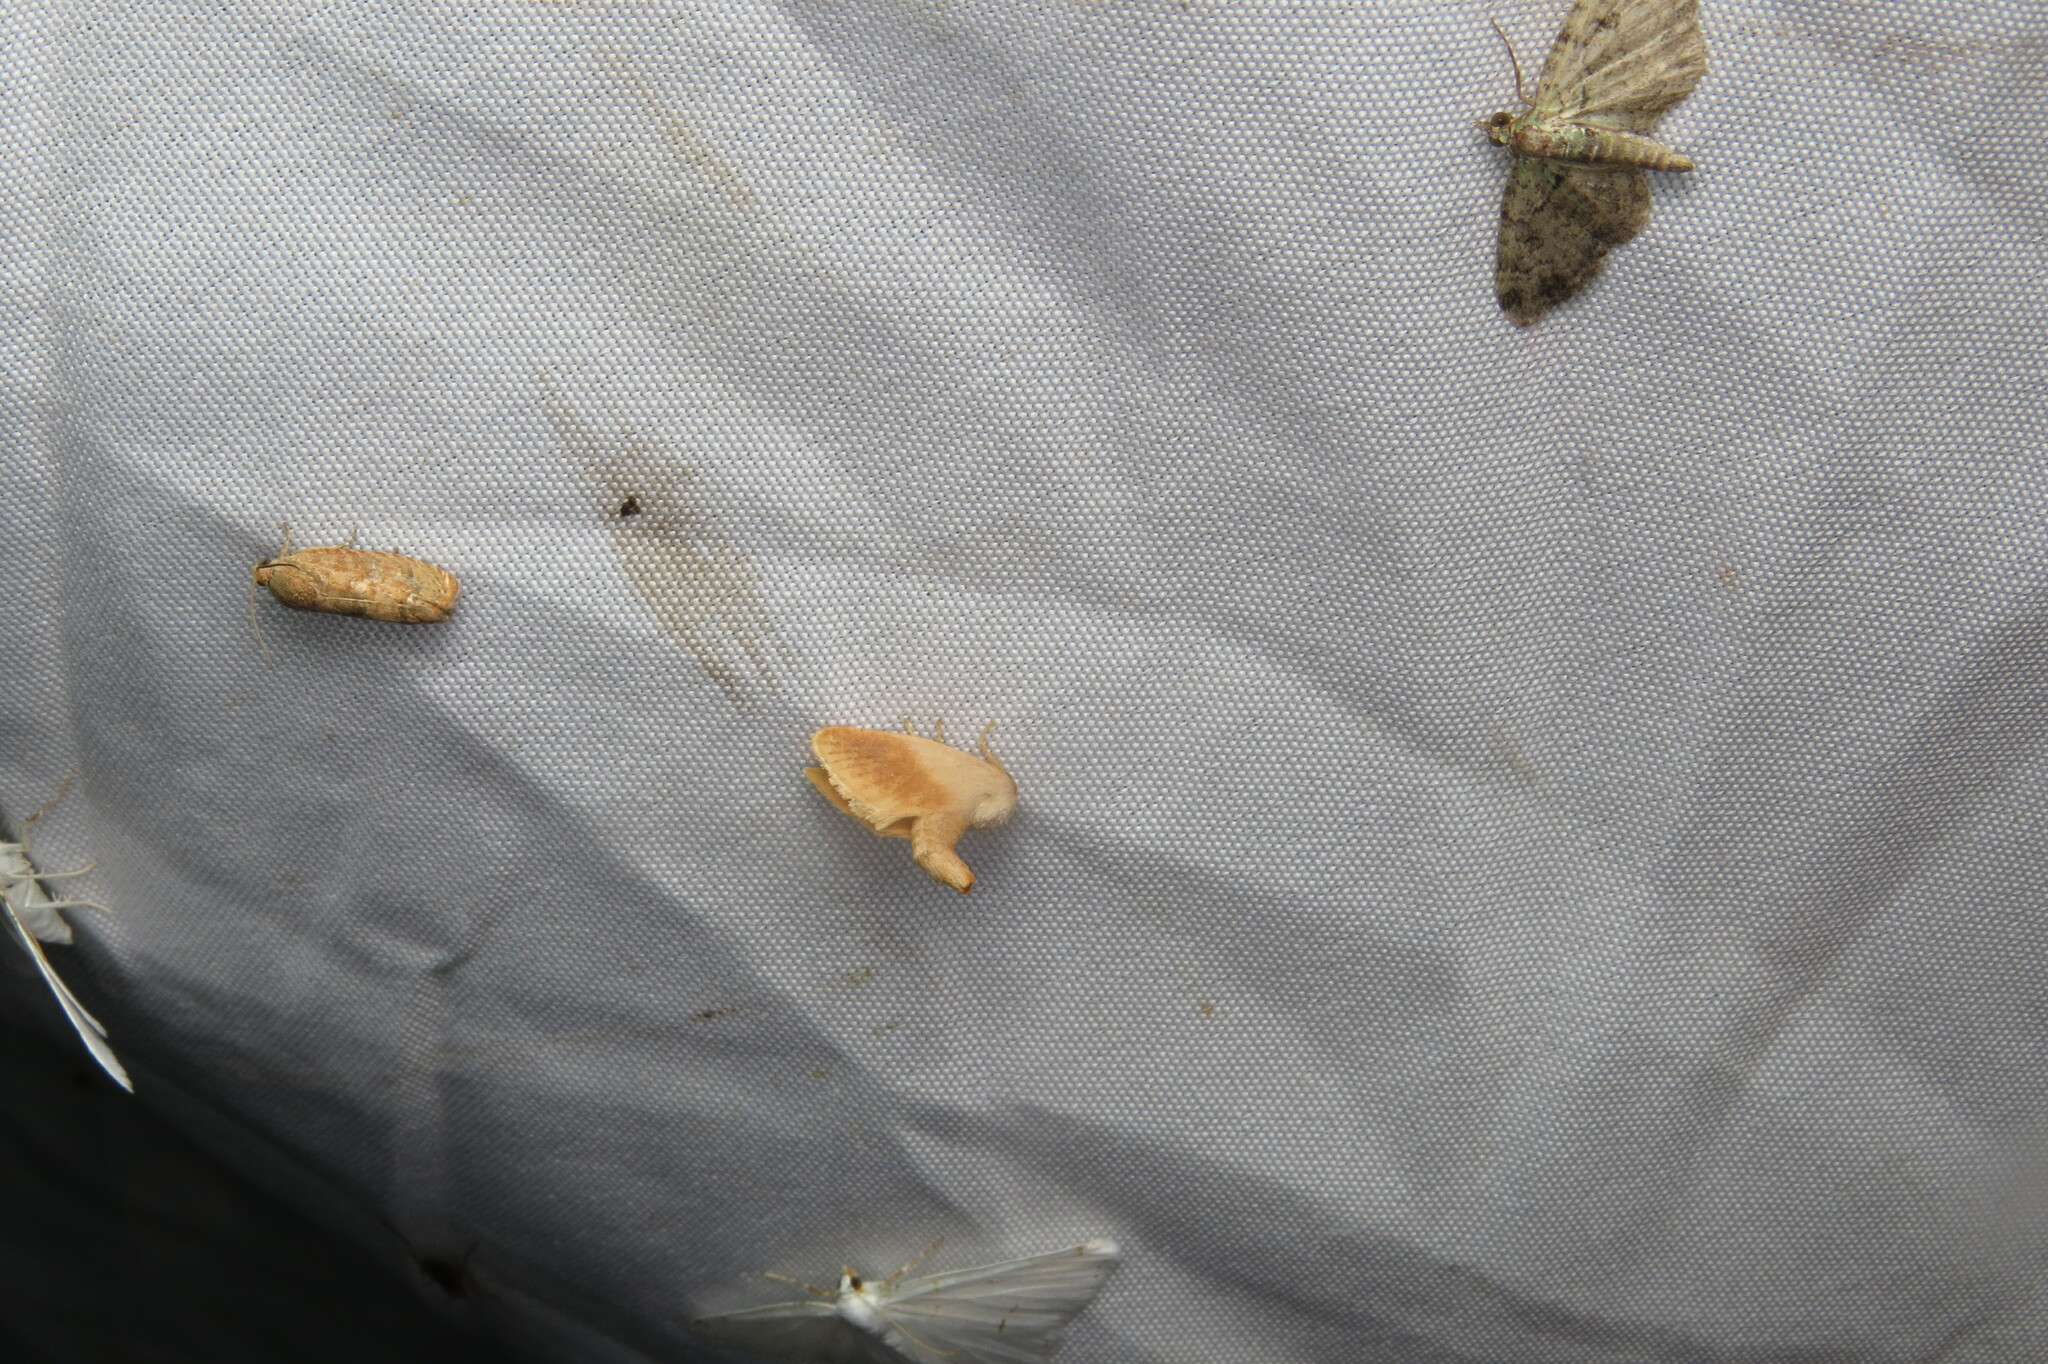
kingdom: Animalia
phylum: Arthropoda
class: Insecta
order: Lepidoptera
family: Limacodidae
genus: Tortricidia
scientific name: Tortricidia testacea
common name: Early button slug moth
